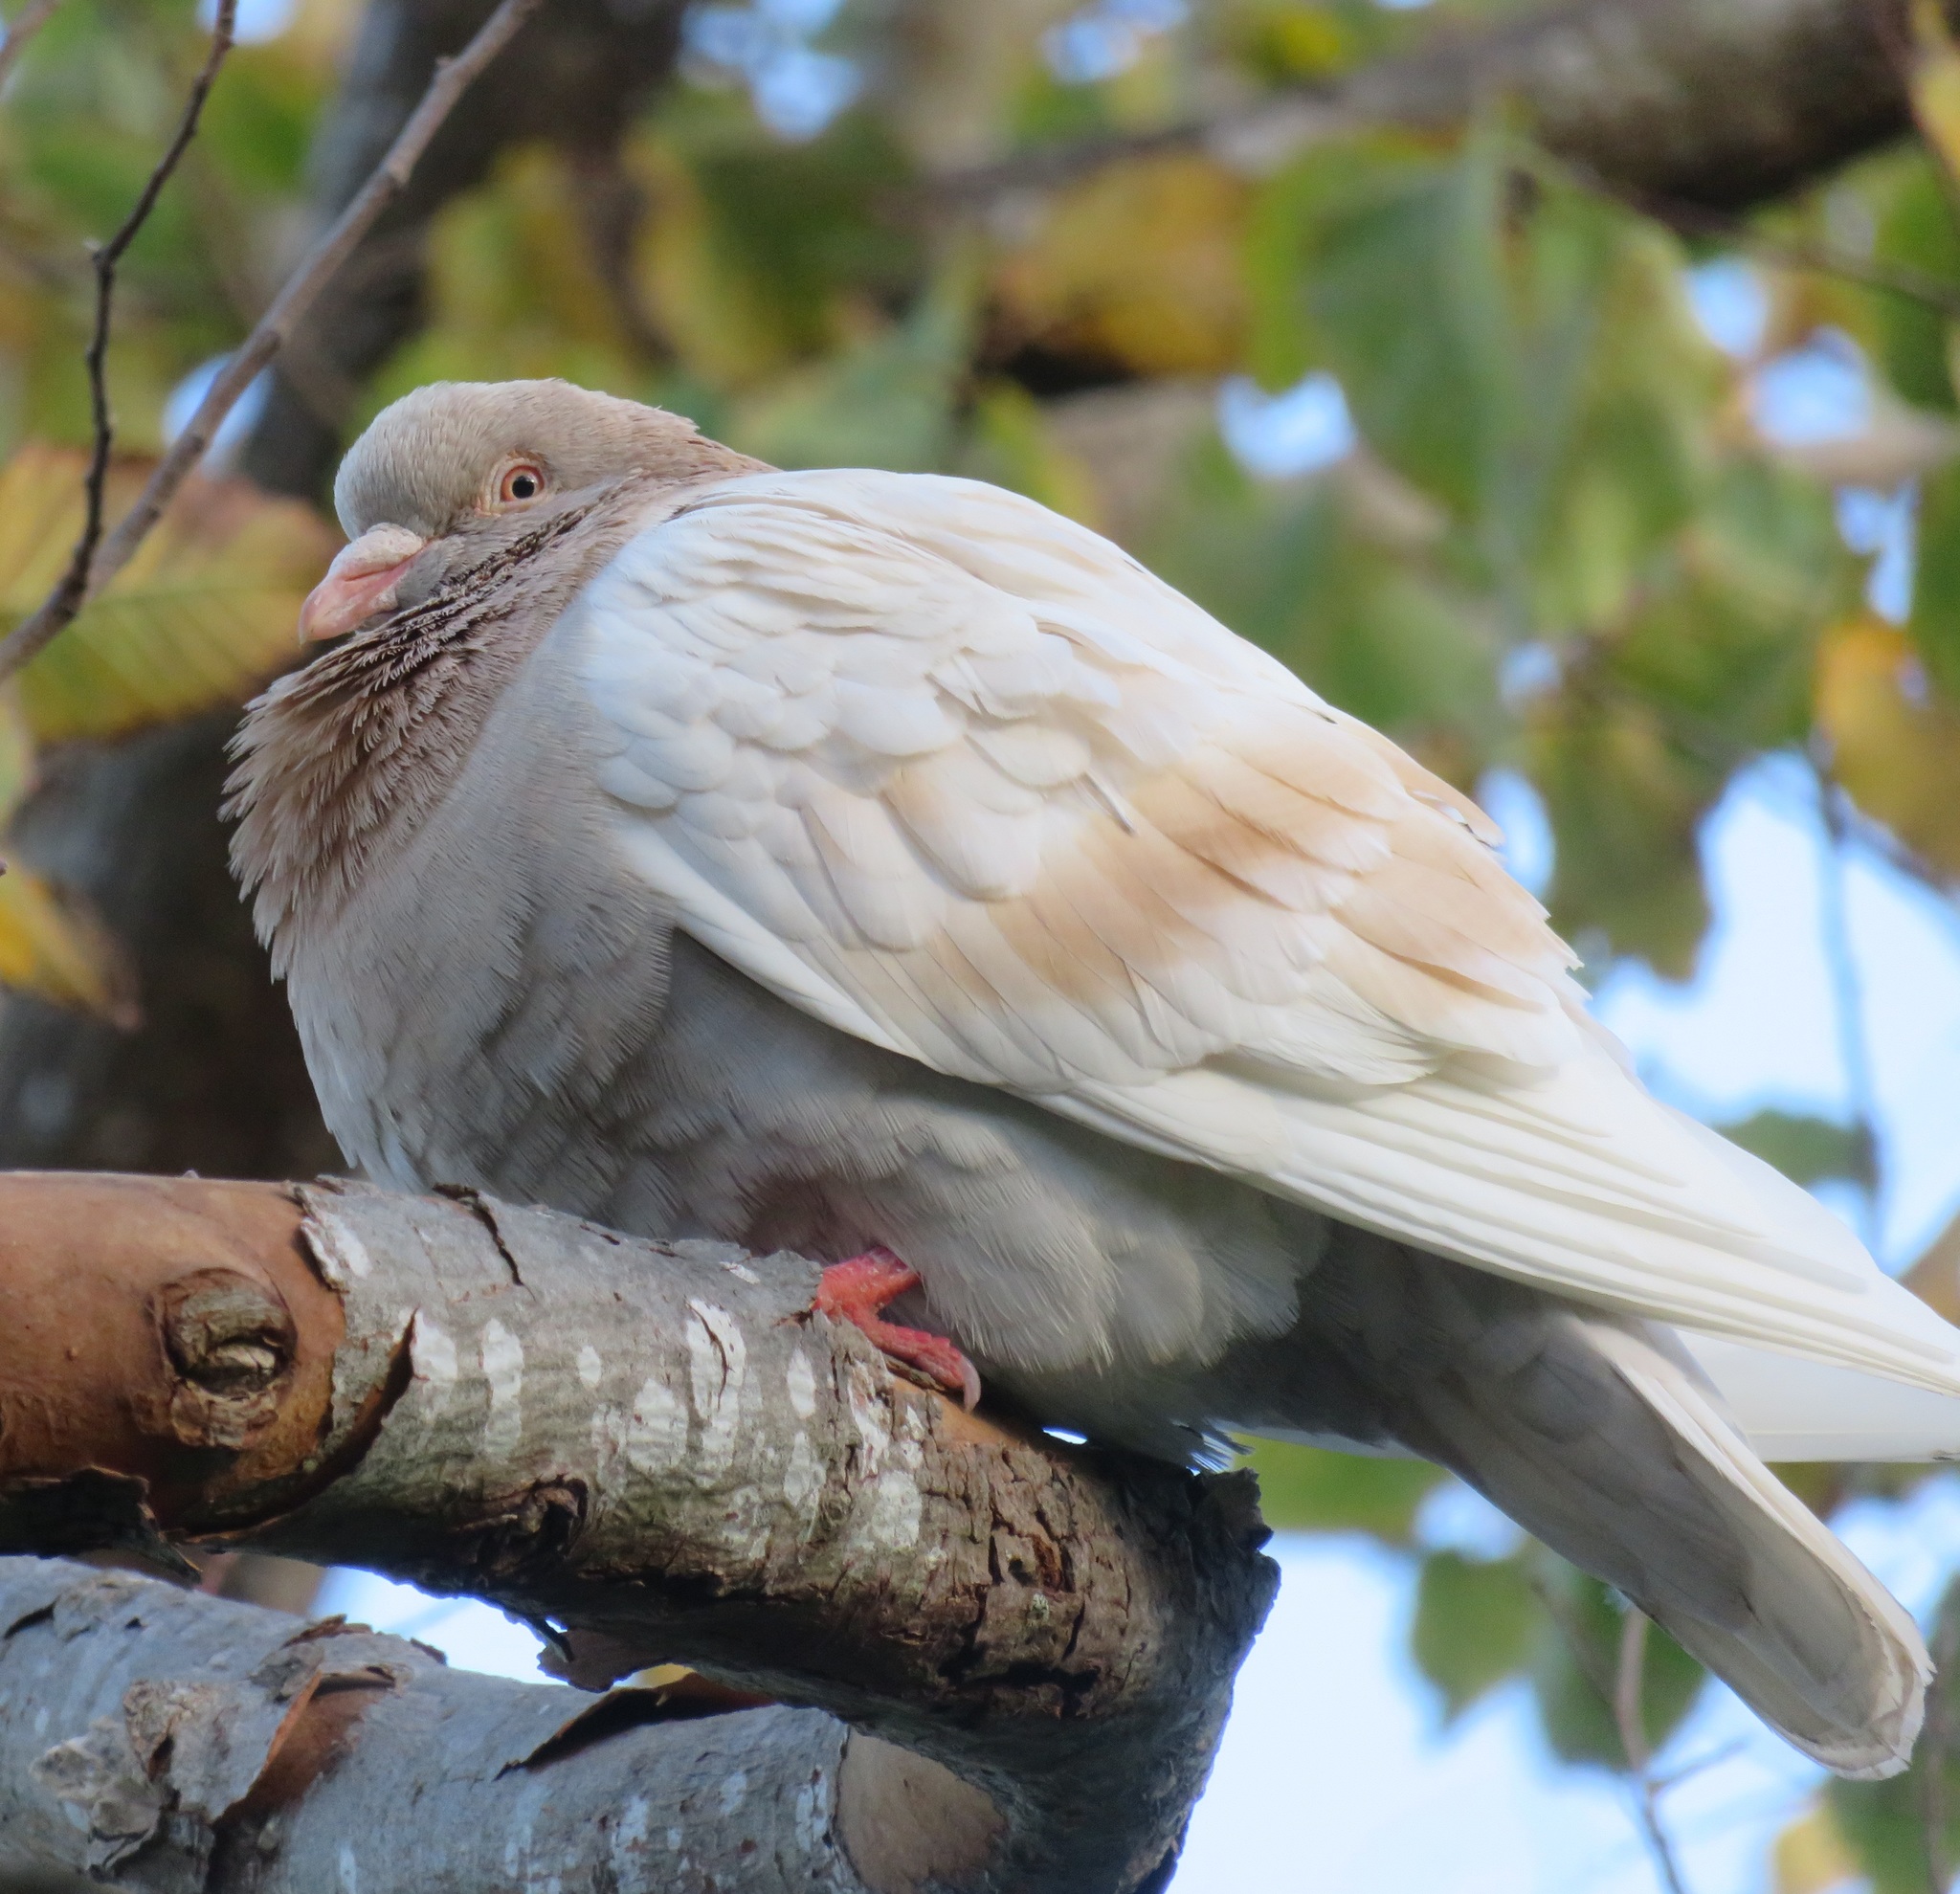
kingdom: Animalia
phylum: Chordata
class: Aves
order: Columbiformes
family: Columbidae
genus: Columba
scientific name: Columba livia
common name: Rock pigeon
